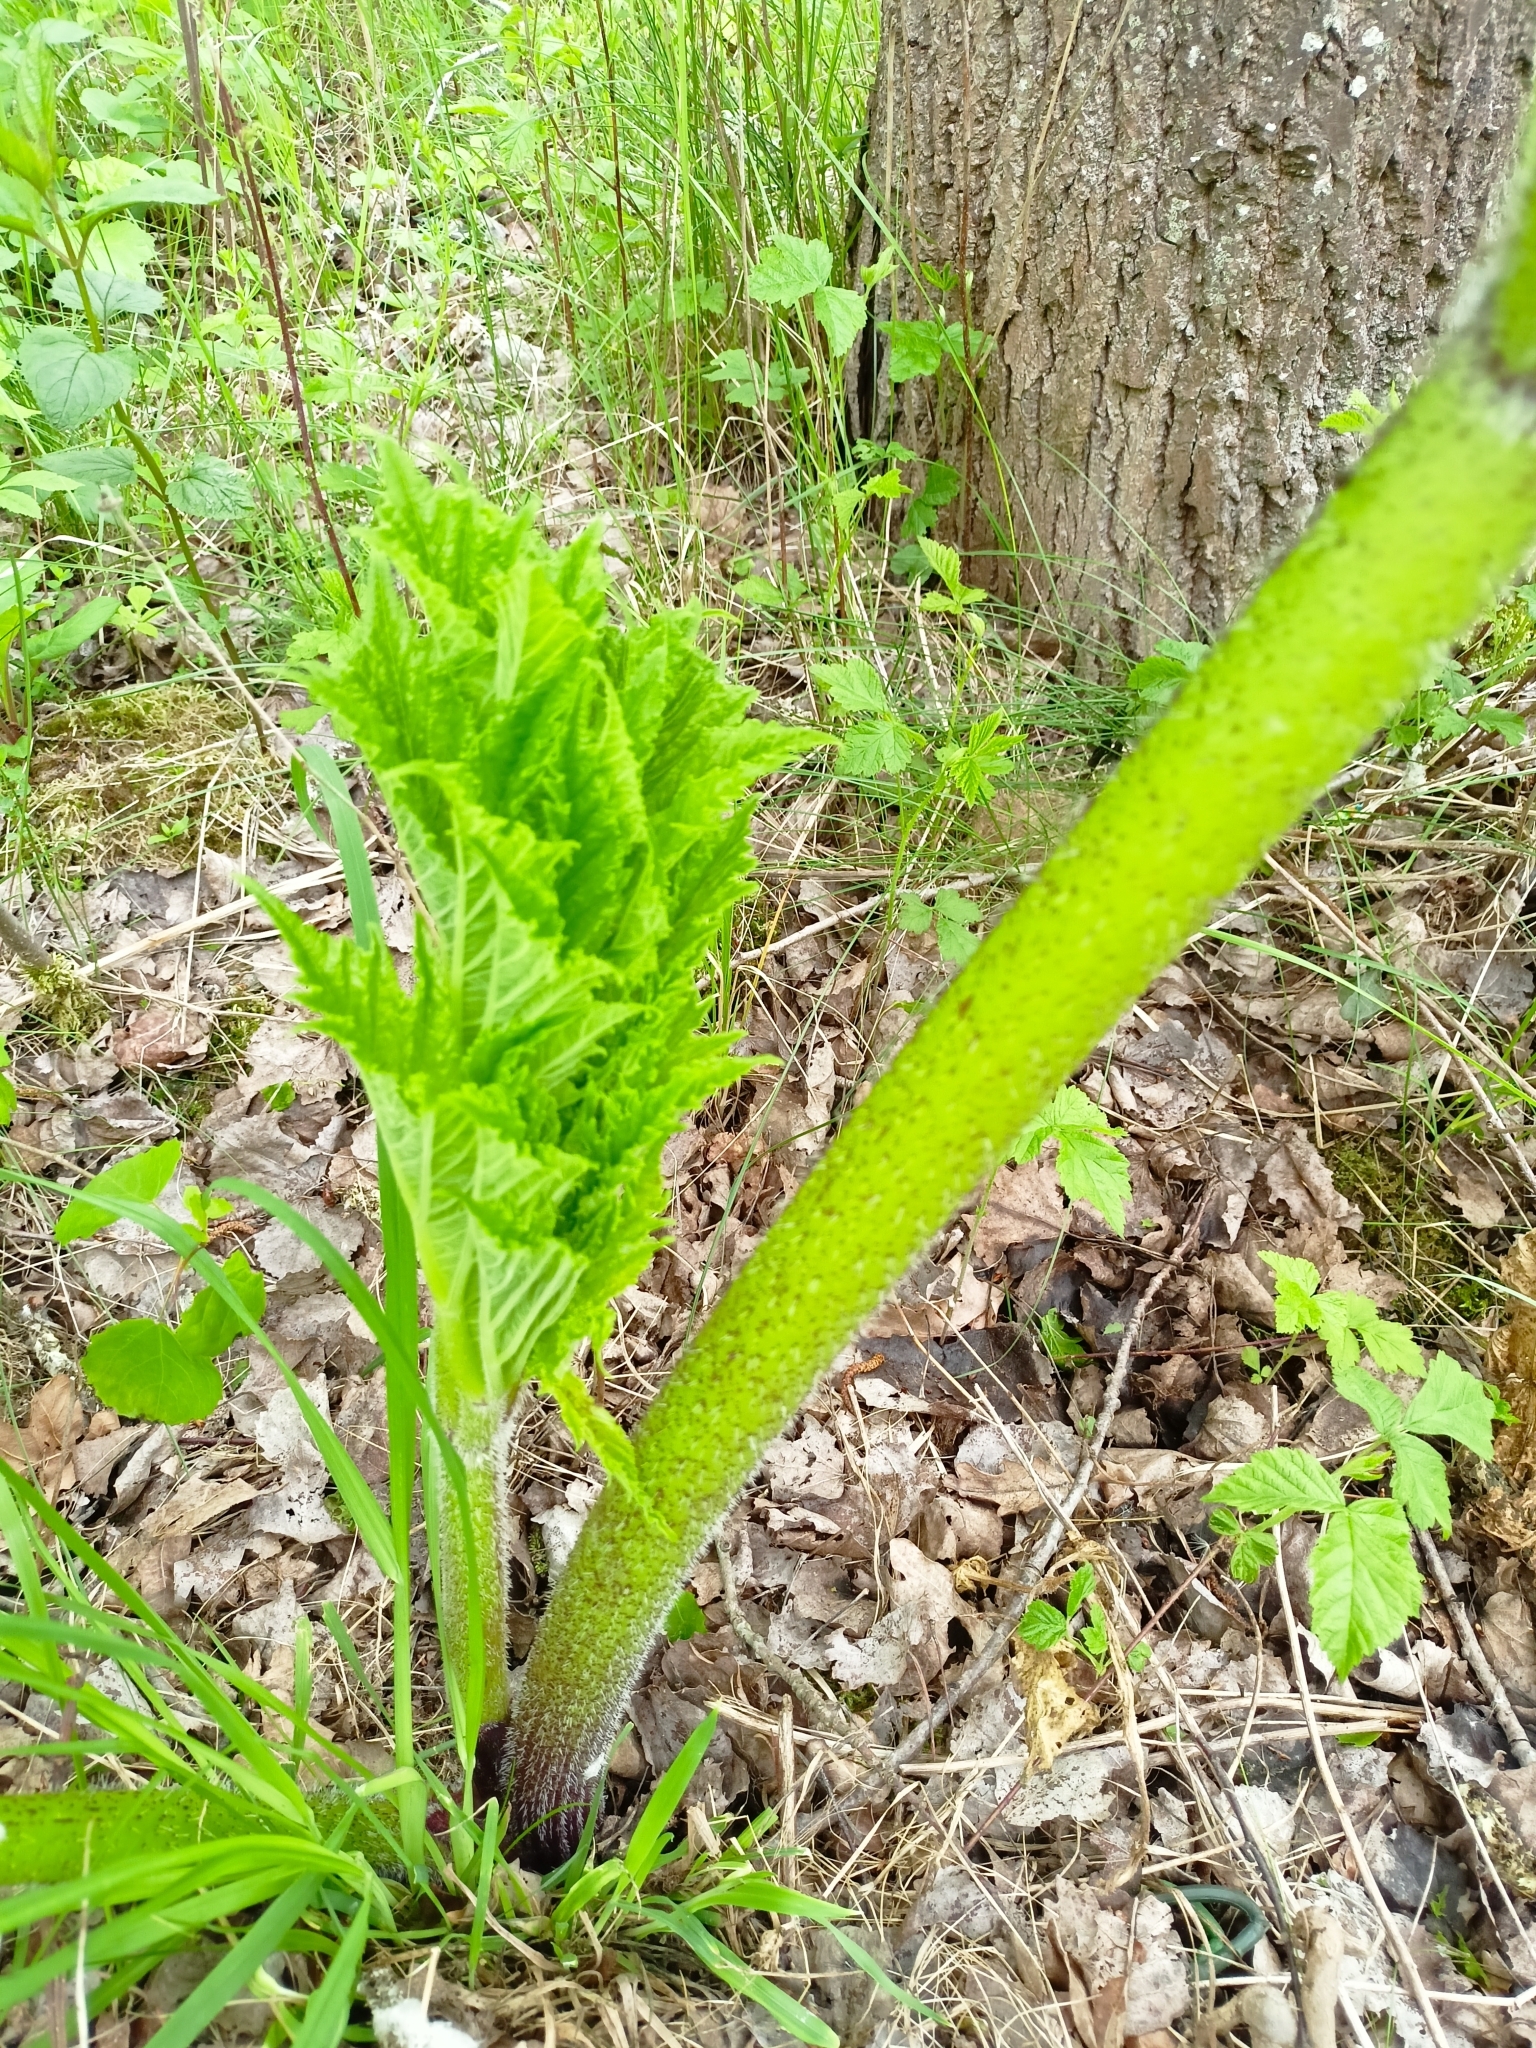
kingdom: Plantae
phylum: Tracheophyta
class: Magnoliopsida
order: Apiales
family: Apiaceae
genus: Heracleum
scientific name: Heracleum sosnowskyi
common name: Sosnowsky's hogweed
